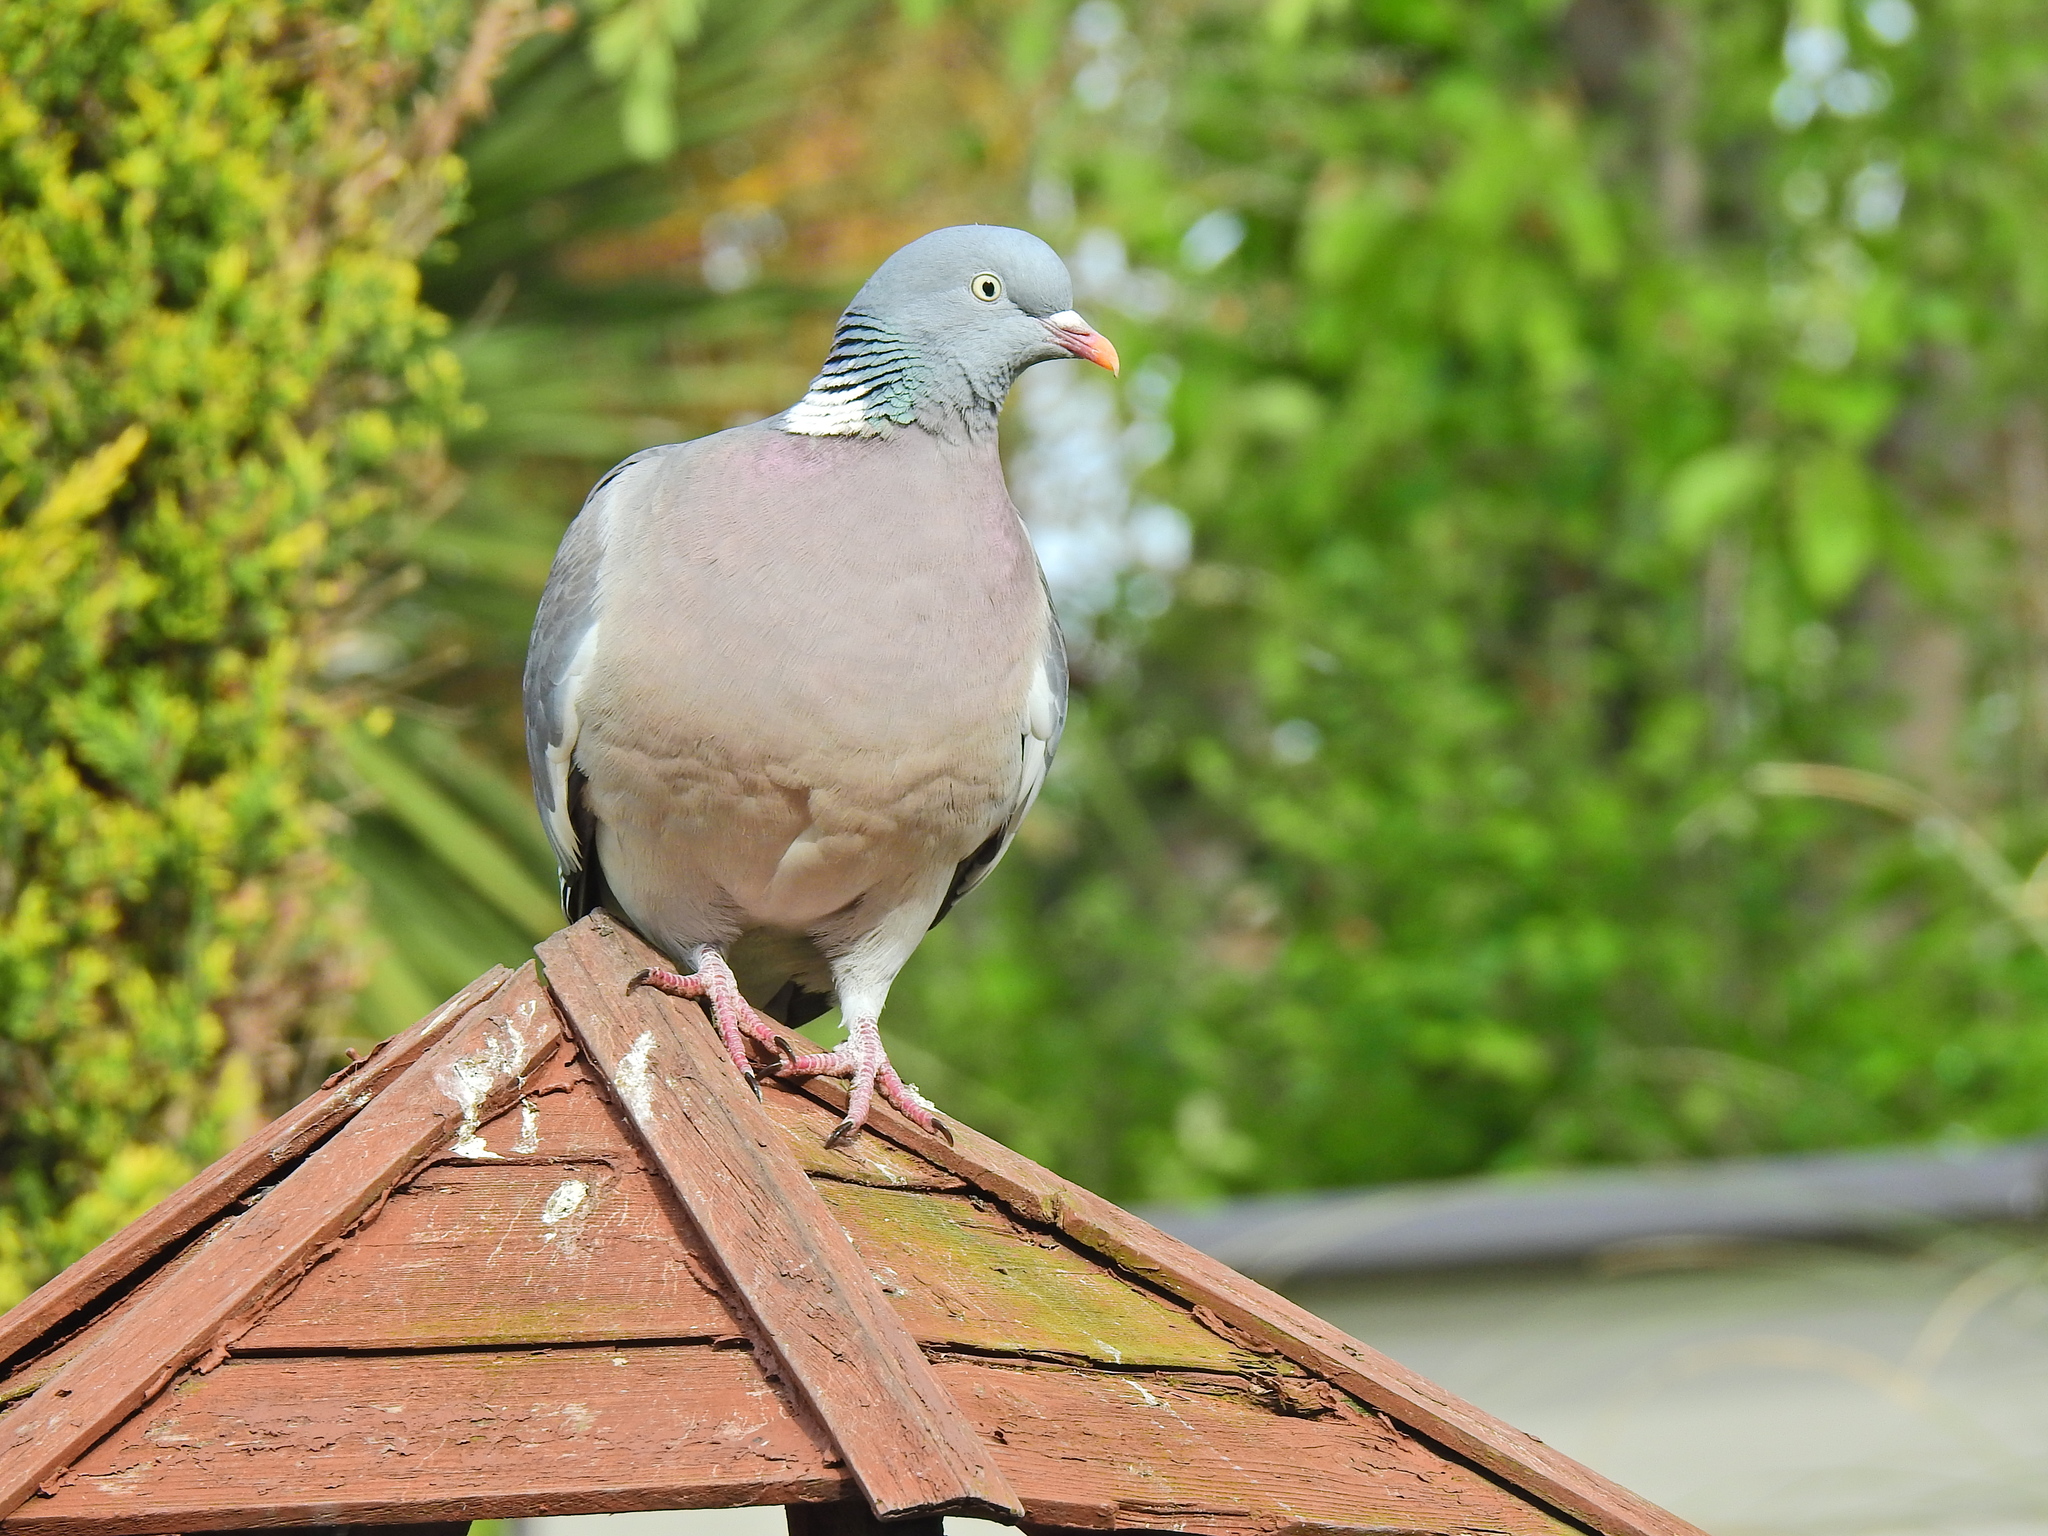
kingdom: Animalia
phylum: Chordata
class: Aves
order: Columbiformes
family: Columbidae
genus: Columba
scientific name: Columba palumbus
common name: Common wood pigeon
